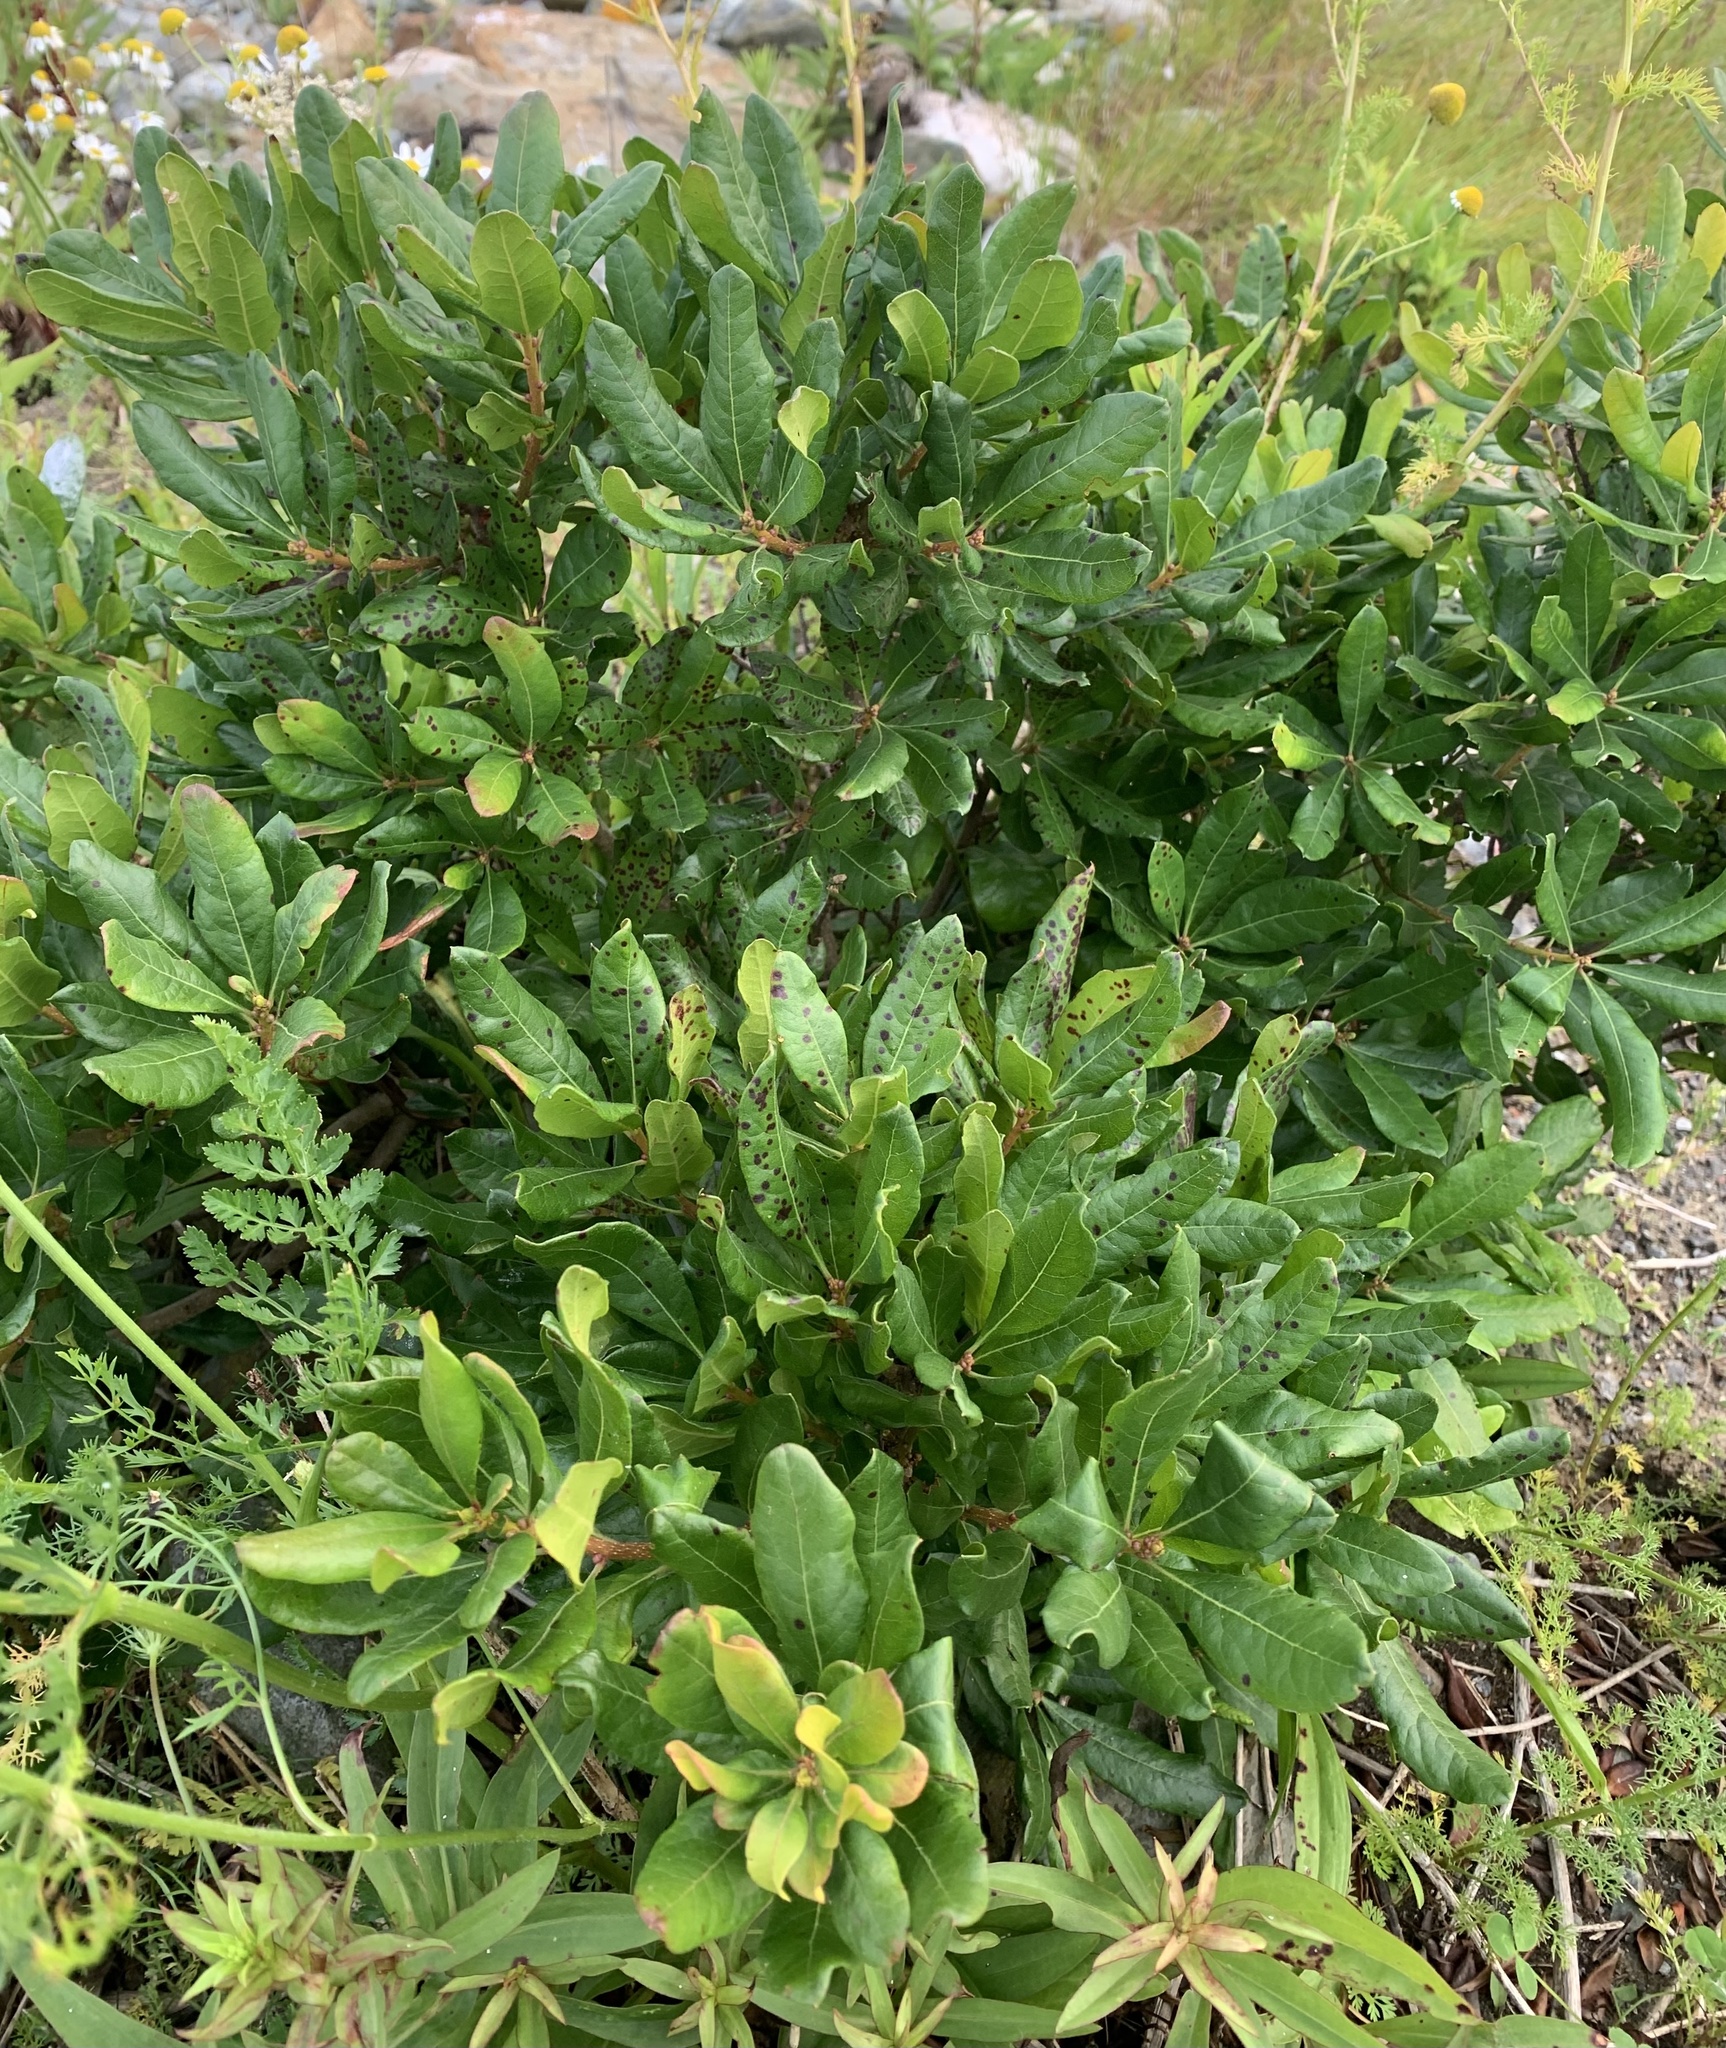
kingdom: Plantae
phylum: Tracheophyta
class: Magnoliopsida
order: Fagales
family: Myricaceae
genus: Morella
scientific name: Morella pensylvanica
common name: Northern bayberry
